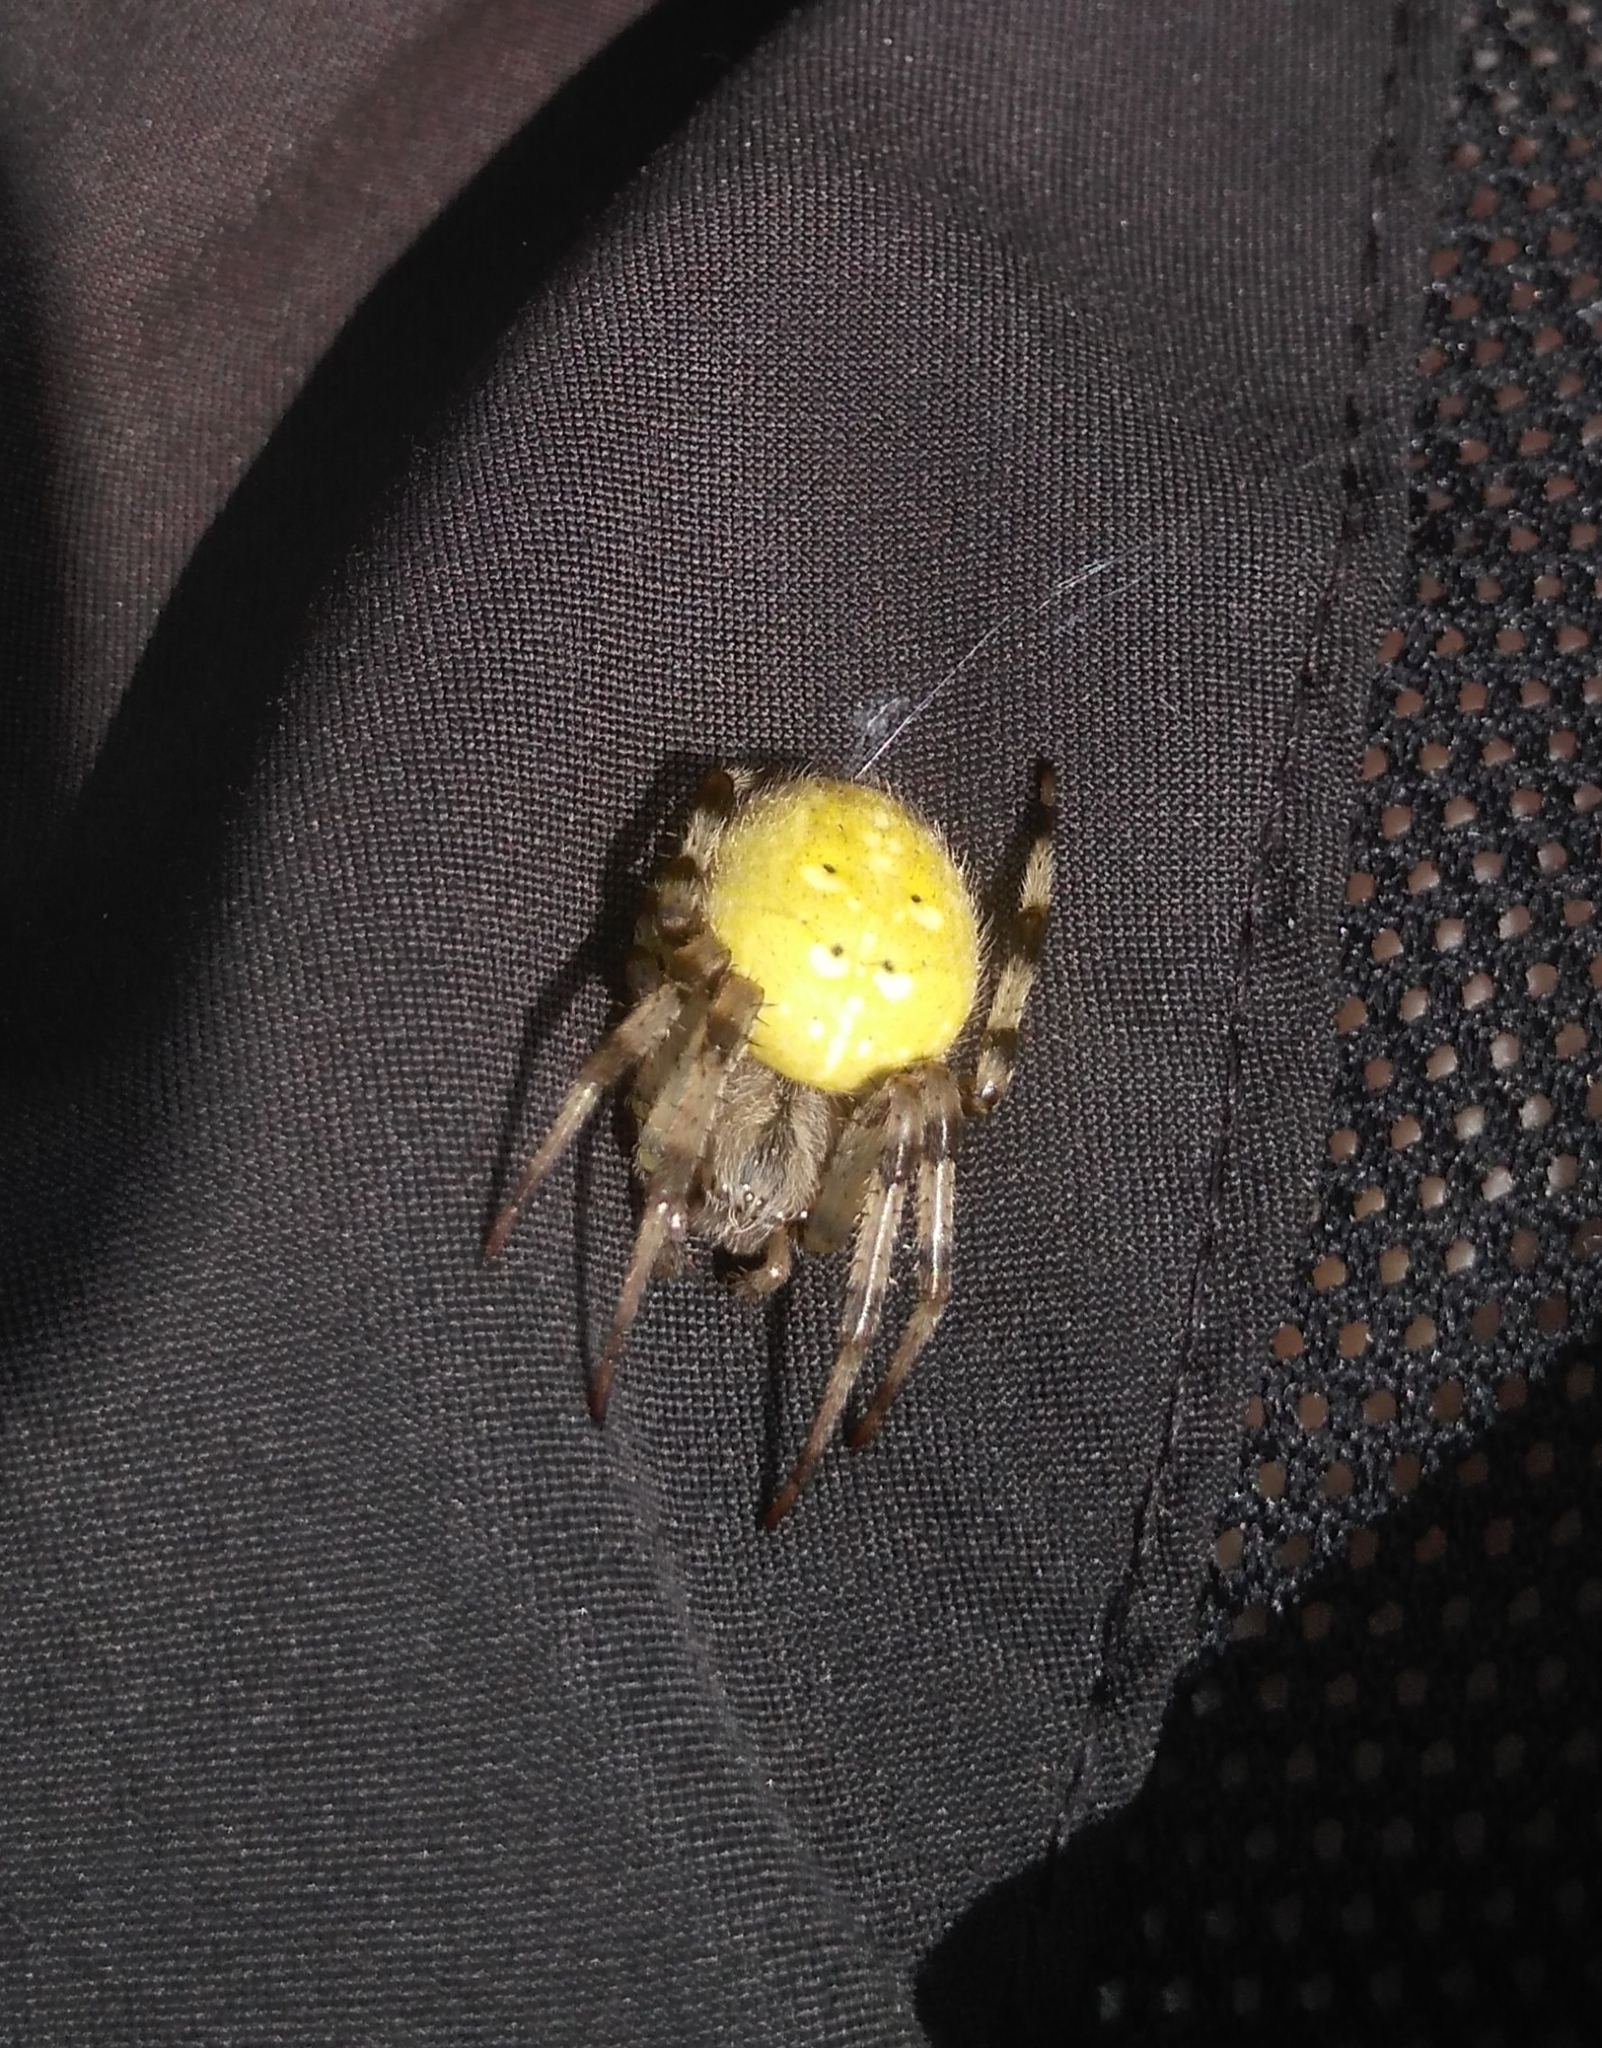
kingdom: Animalia
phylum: Arthropoda
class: Arachnida
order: Araneae
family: Araneidae
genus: Araneus
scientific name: Araneus quadratus
